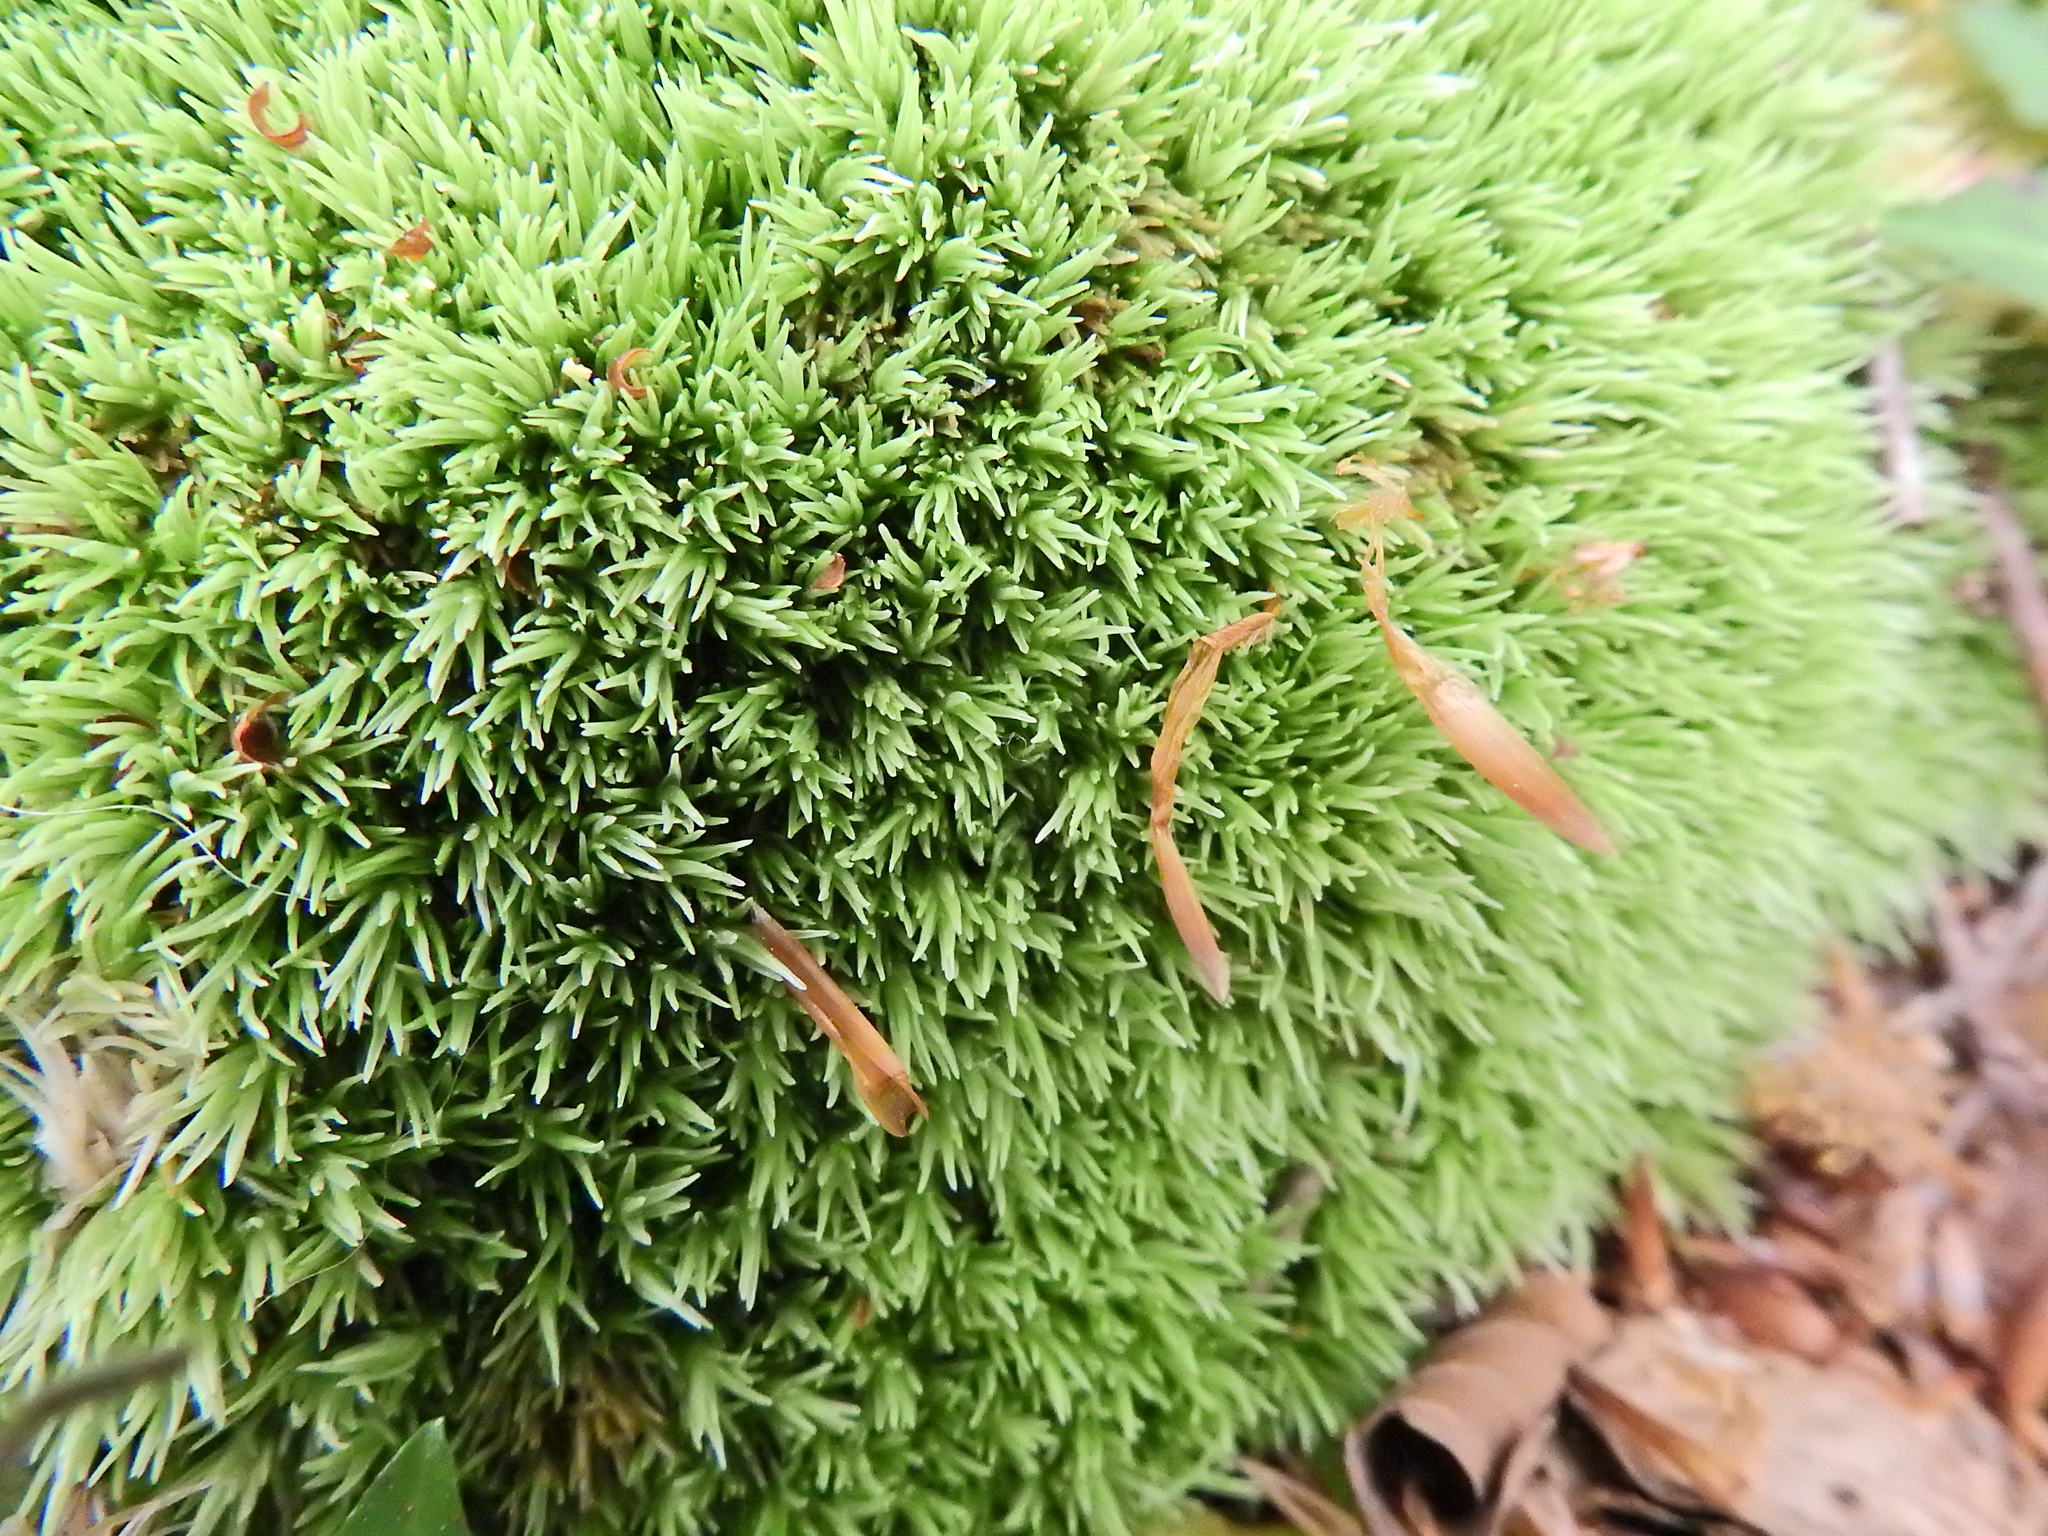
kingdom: Plantae
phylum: Bryophyta
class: Bryopsida
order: Dicranales
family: Leucobryaceae
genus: Leucobryum
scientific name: Leucobryum
